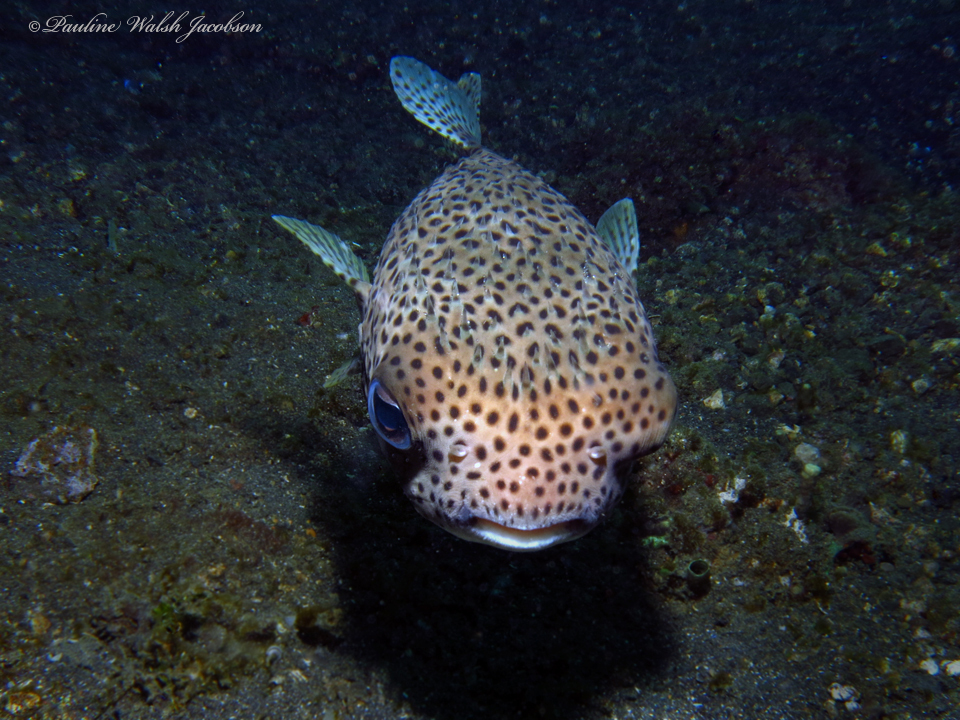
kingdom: Animalia
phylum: Chordata
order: Tetraodontiformes
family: Diodontidae
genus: Diodon
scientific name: Diodon hystrix
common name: Giant porcupinefish
